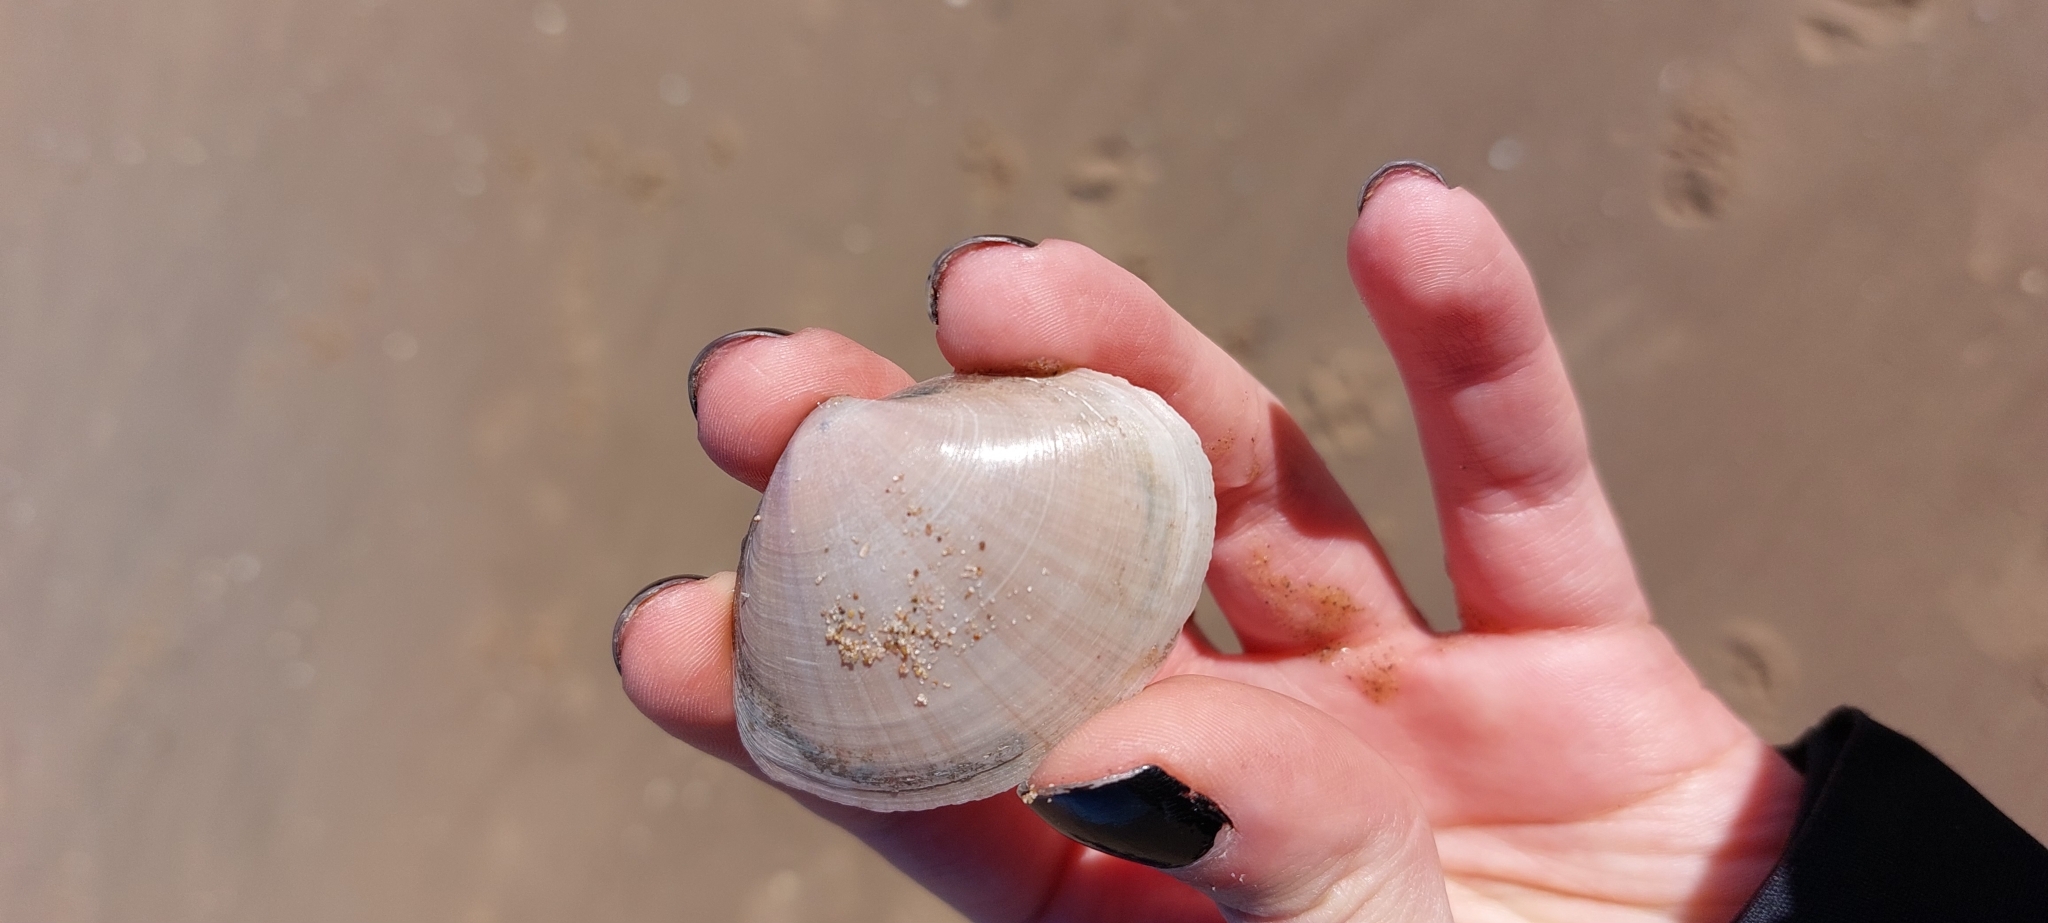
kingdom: Animalia
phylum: Mollusca
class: Bivalvia
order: Venerida
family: Mactridae
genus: Mactra
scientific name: Mactra stultorum
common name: Rayed trough shell
